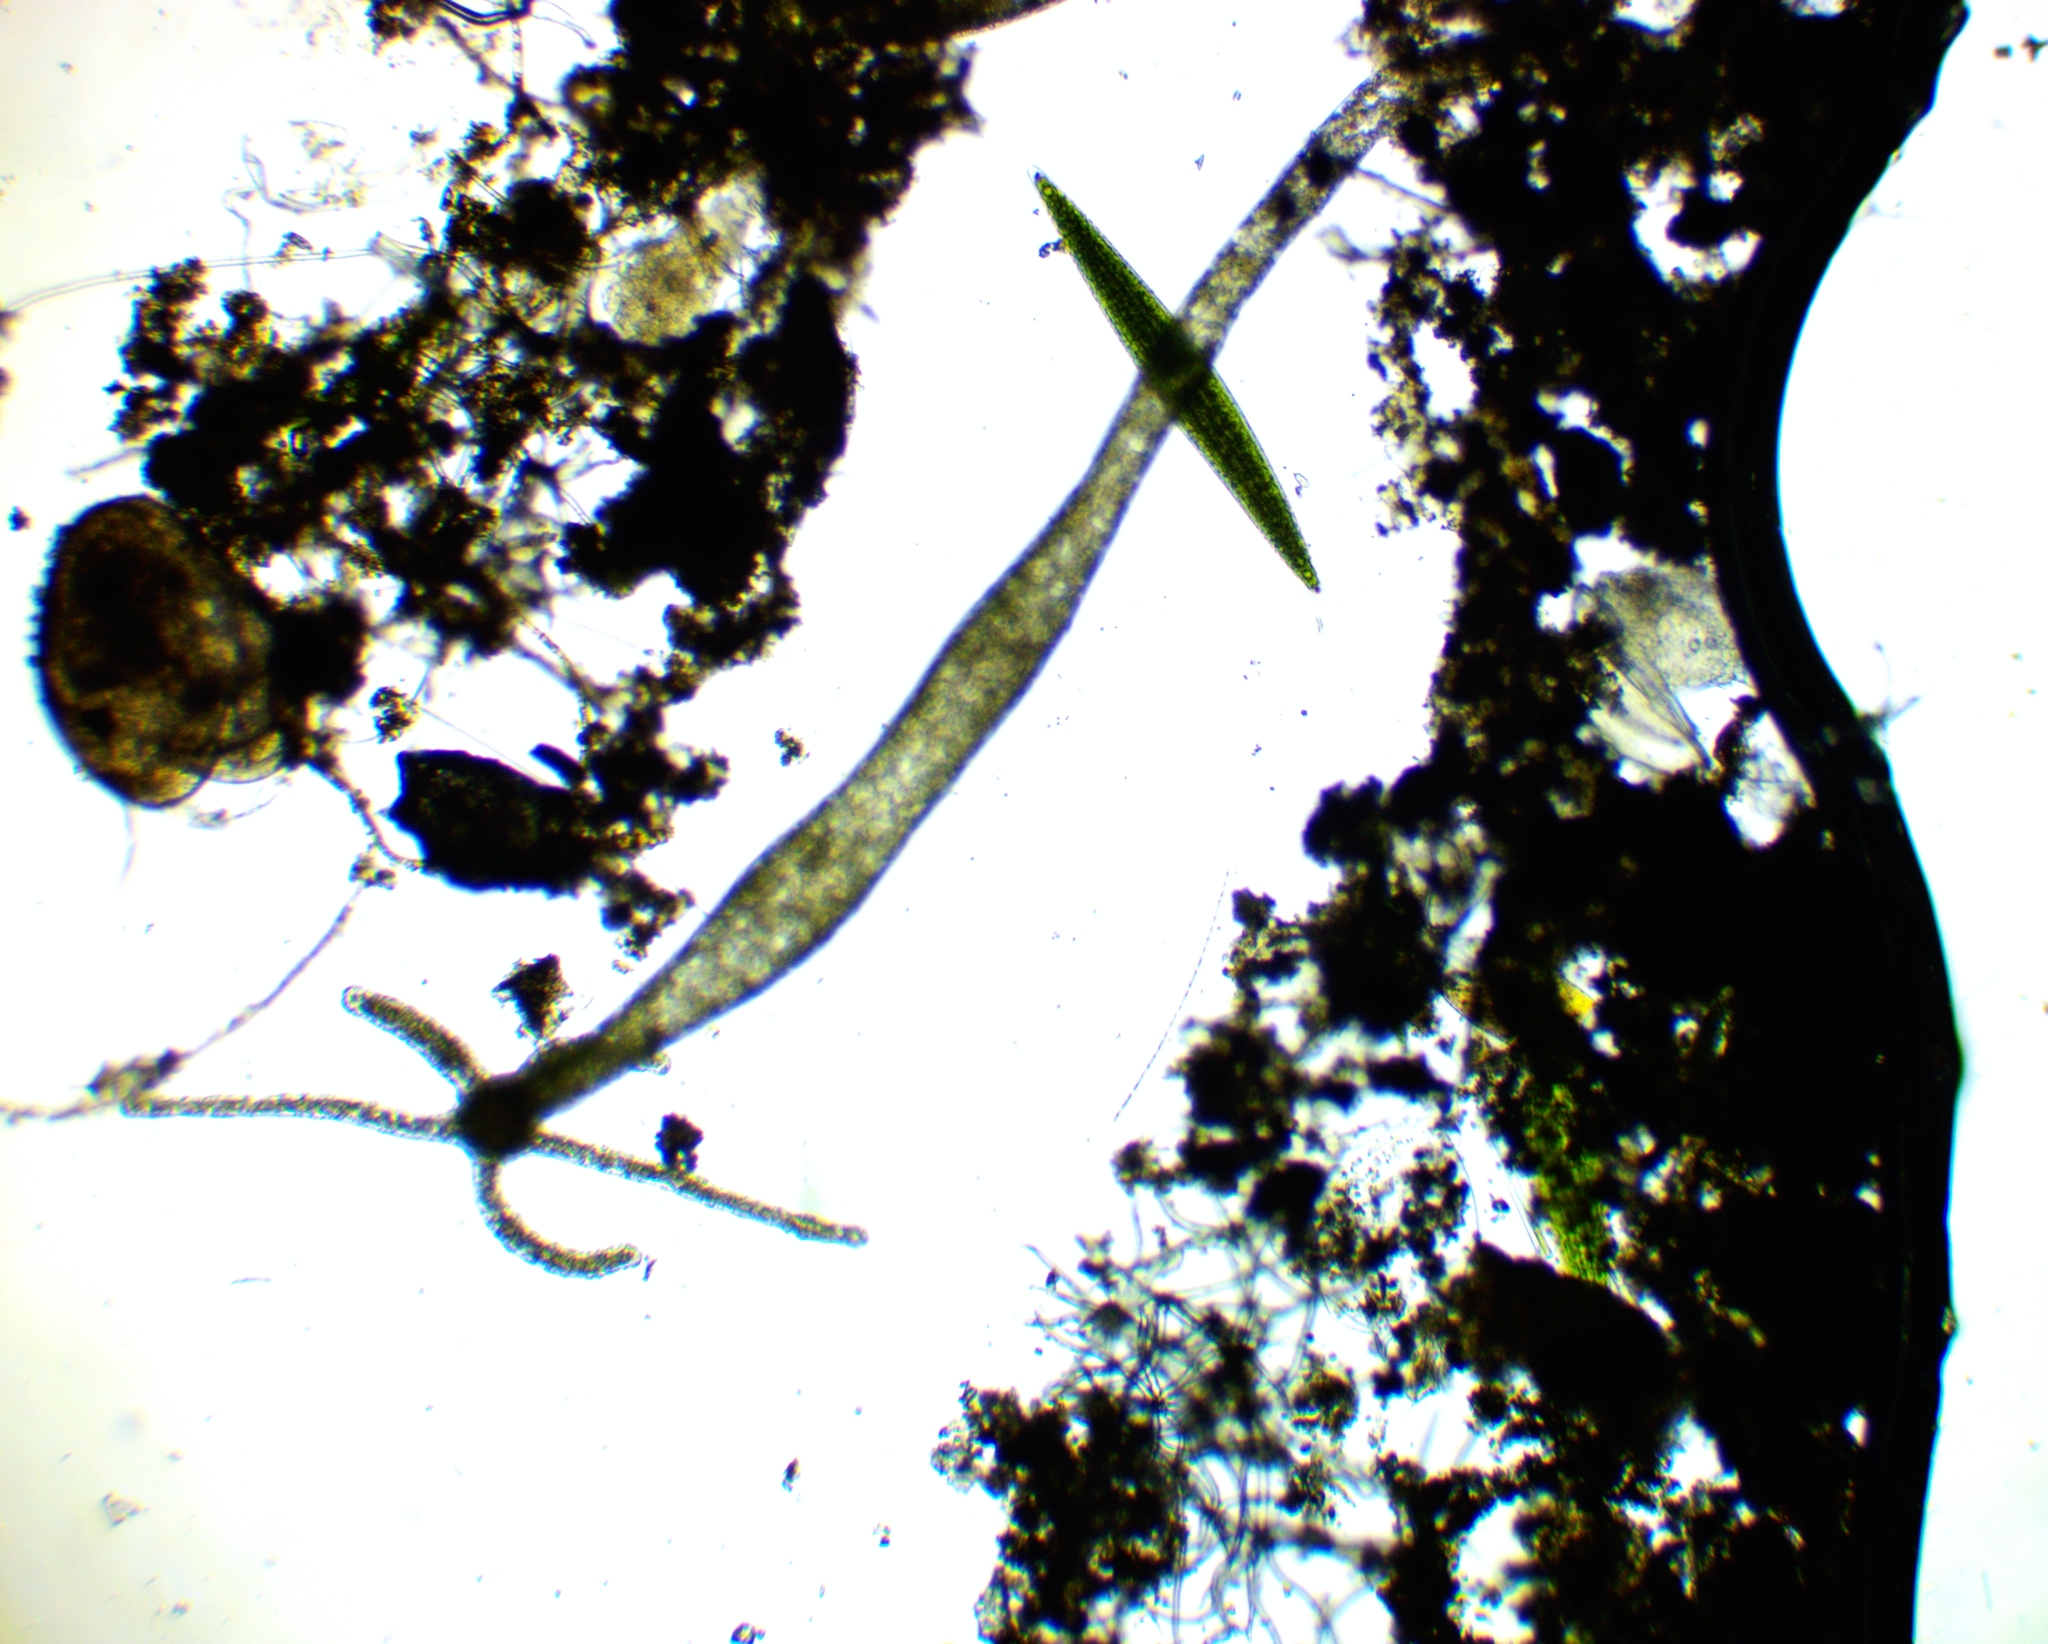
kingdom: Animalia
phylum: Cnidaria
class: Hydrozoa
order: Anthoathecata
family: Hydridae
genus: Hydra
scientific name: Hydra viridissima
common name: Green hydra
